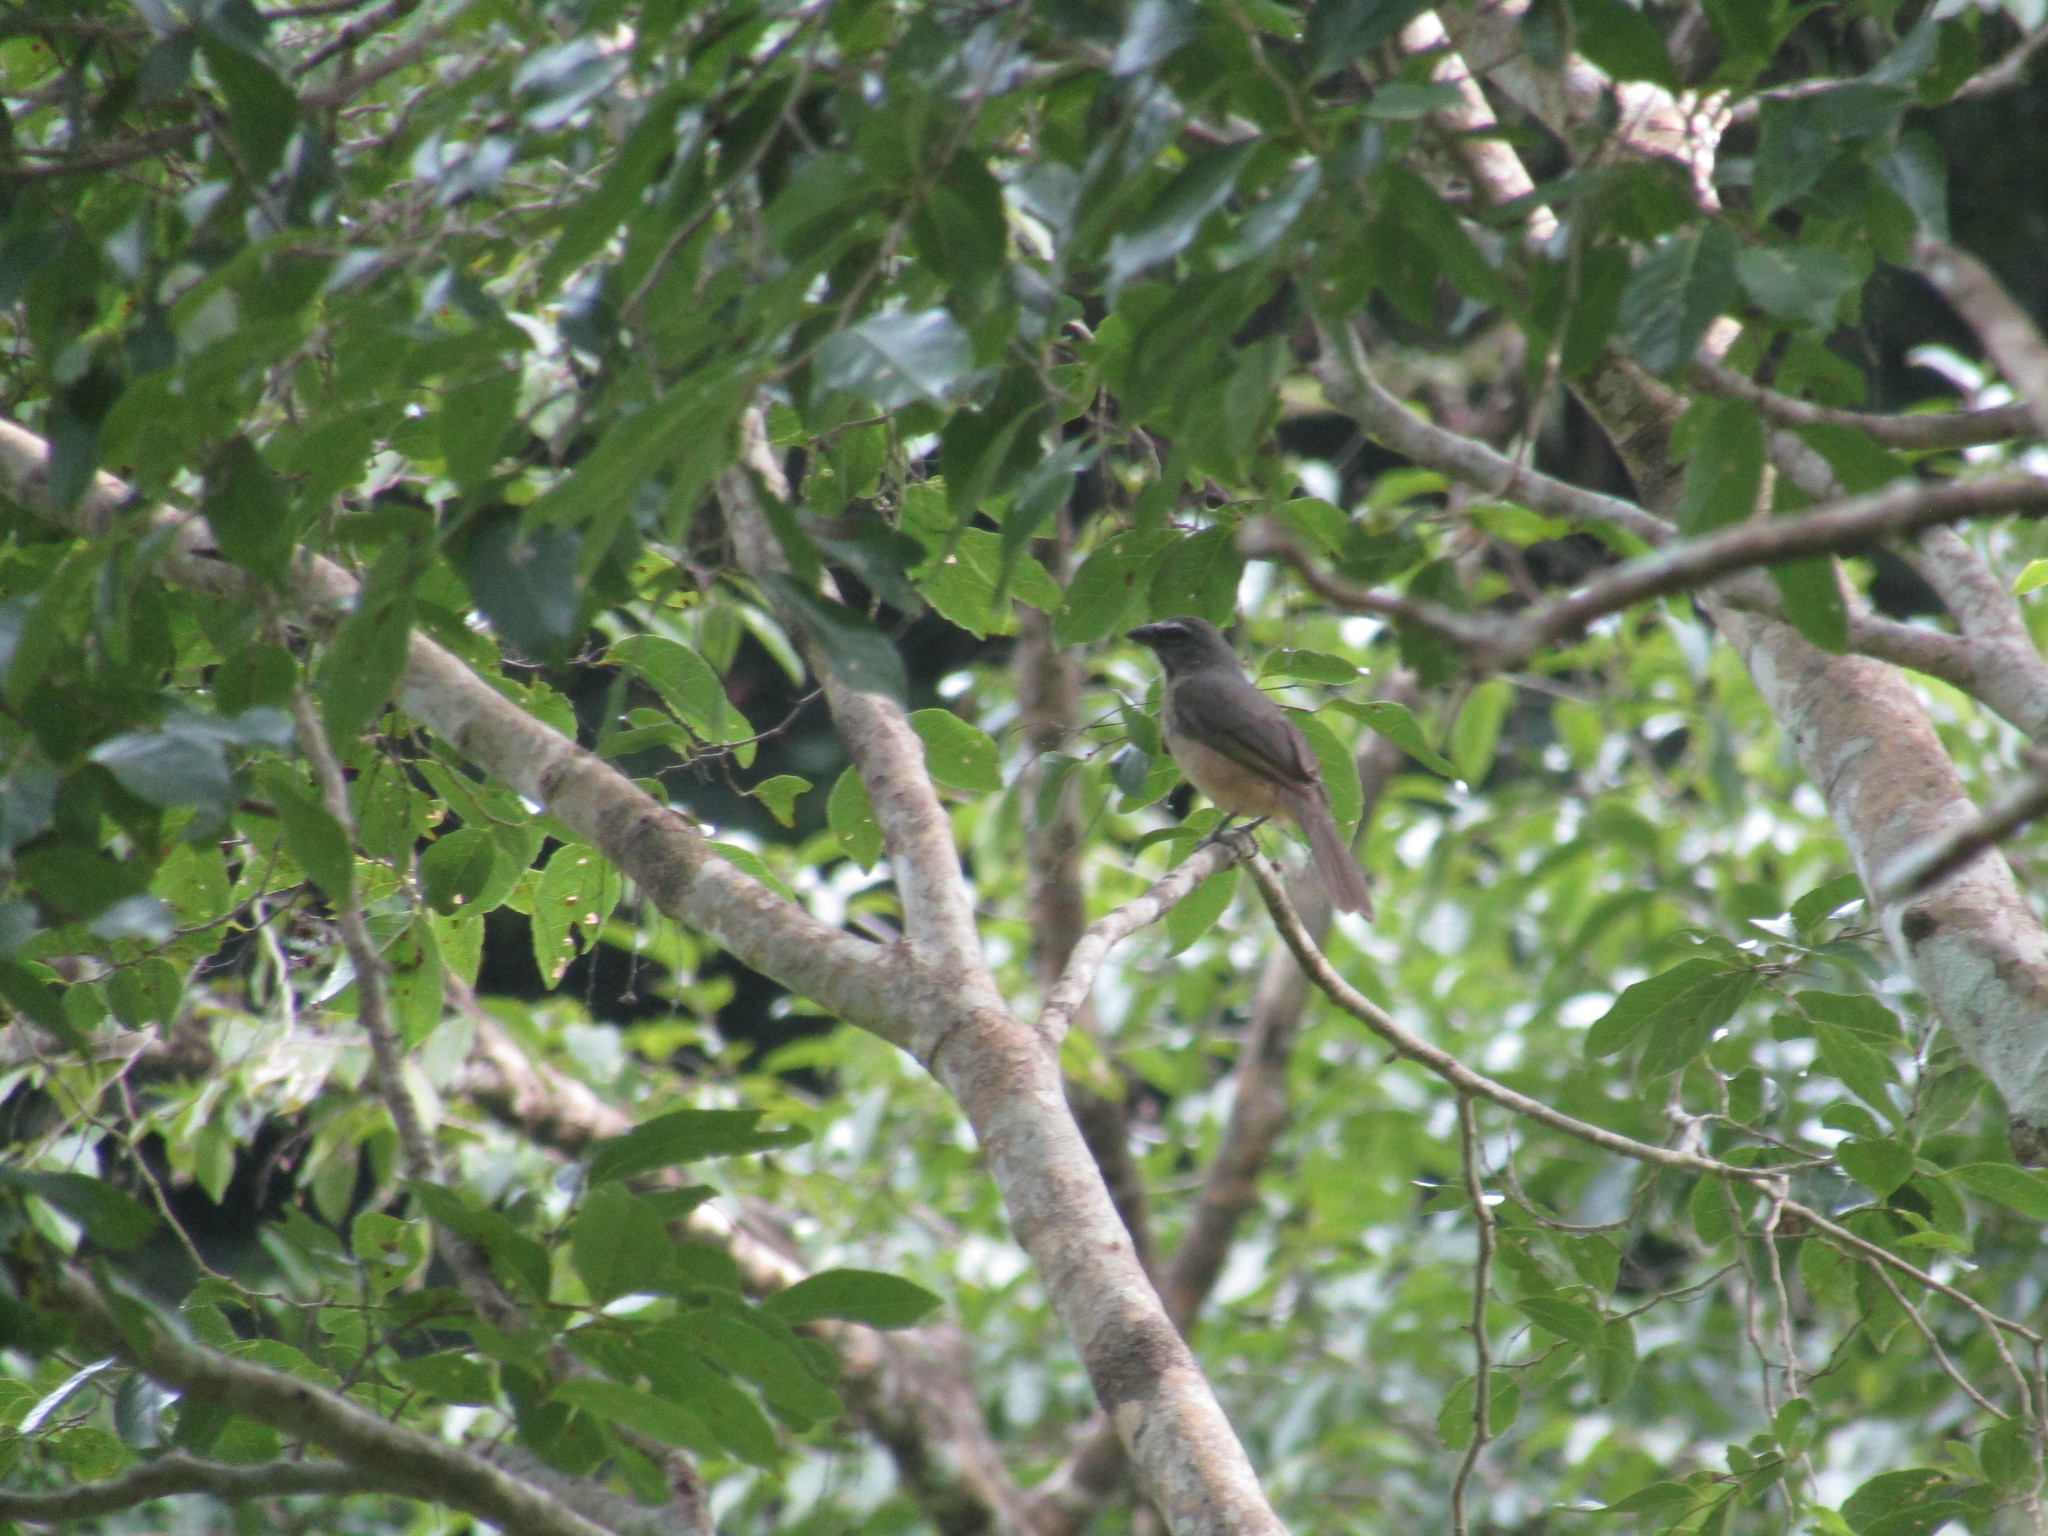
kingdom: Animalia
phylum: Chordata
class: Aves
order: Passeriformes
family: Thraupidae
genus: Saltator
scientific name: Saltator grandis
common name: Cinnamon-bellied saltator
